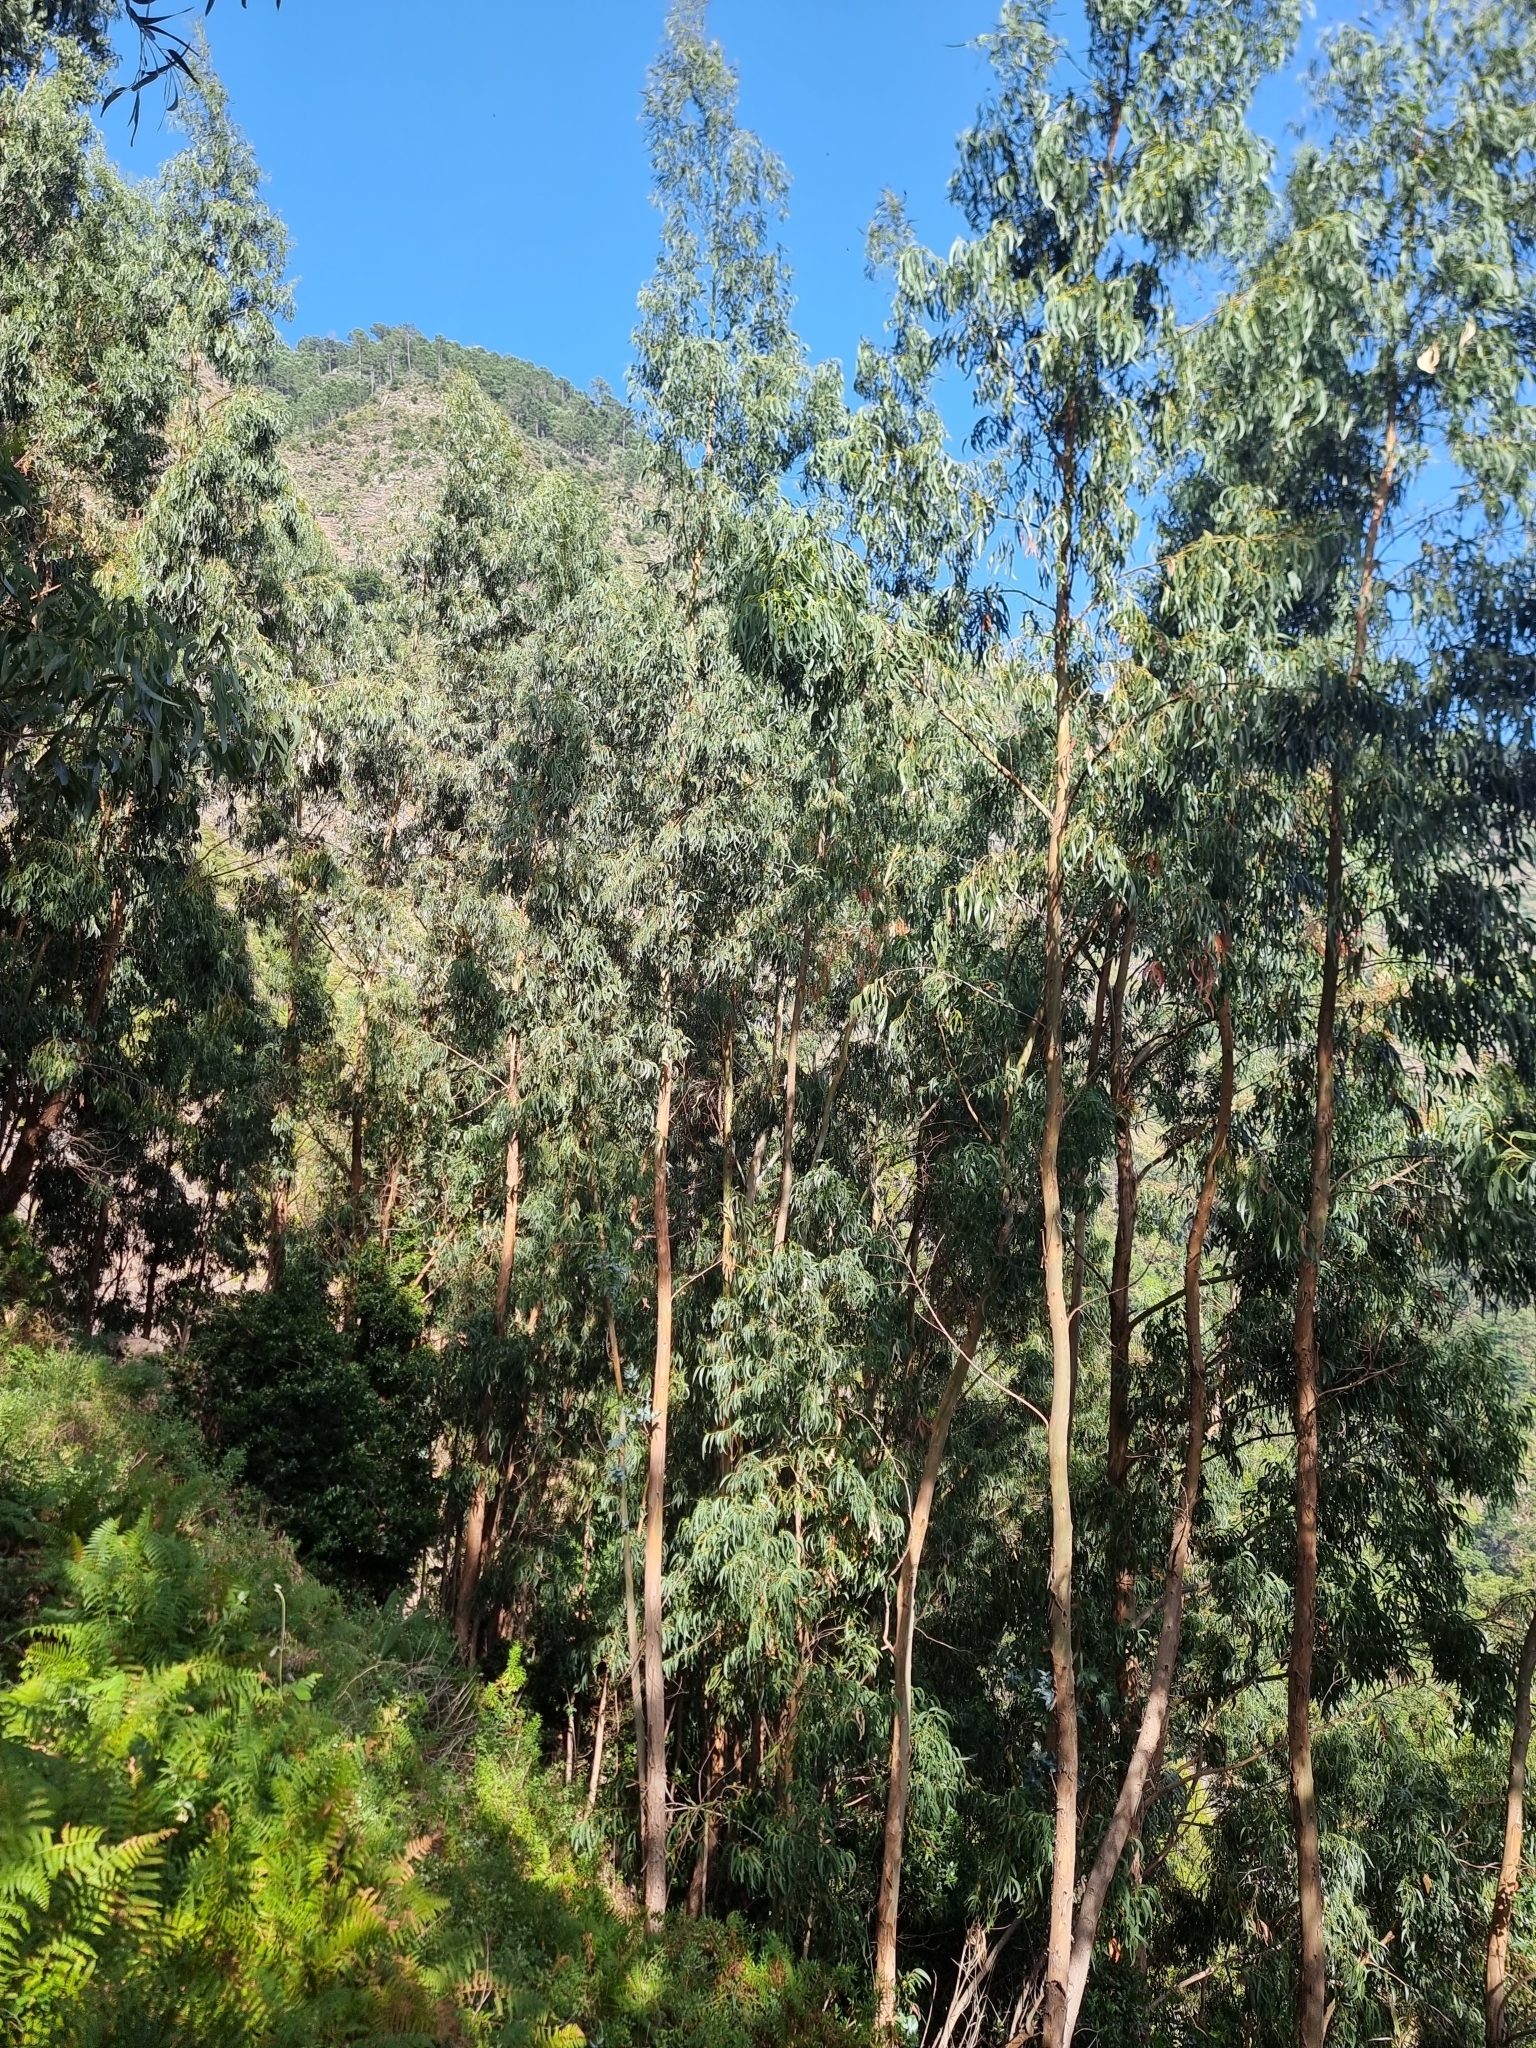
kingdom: Plantae
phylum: Tracheophyta
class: Magnoliopsida
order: Myrtales
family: Myrtaceae
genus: Eucalyptus
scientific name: Eucalyptus globulus
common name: Southern blue-gum
